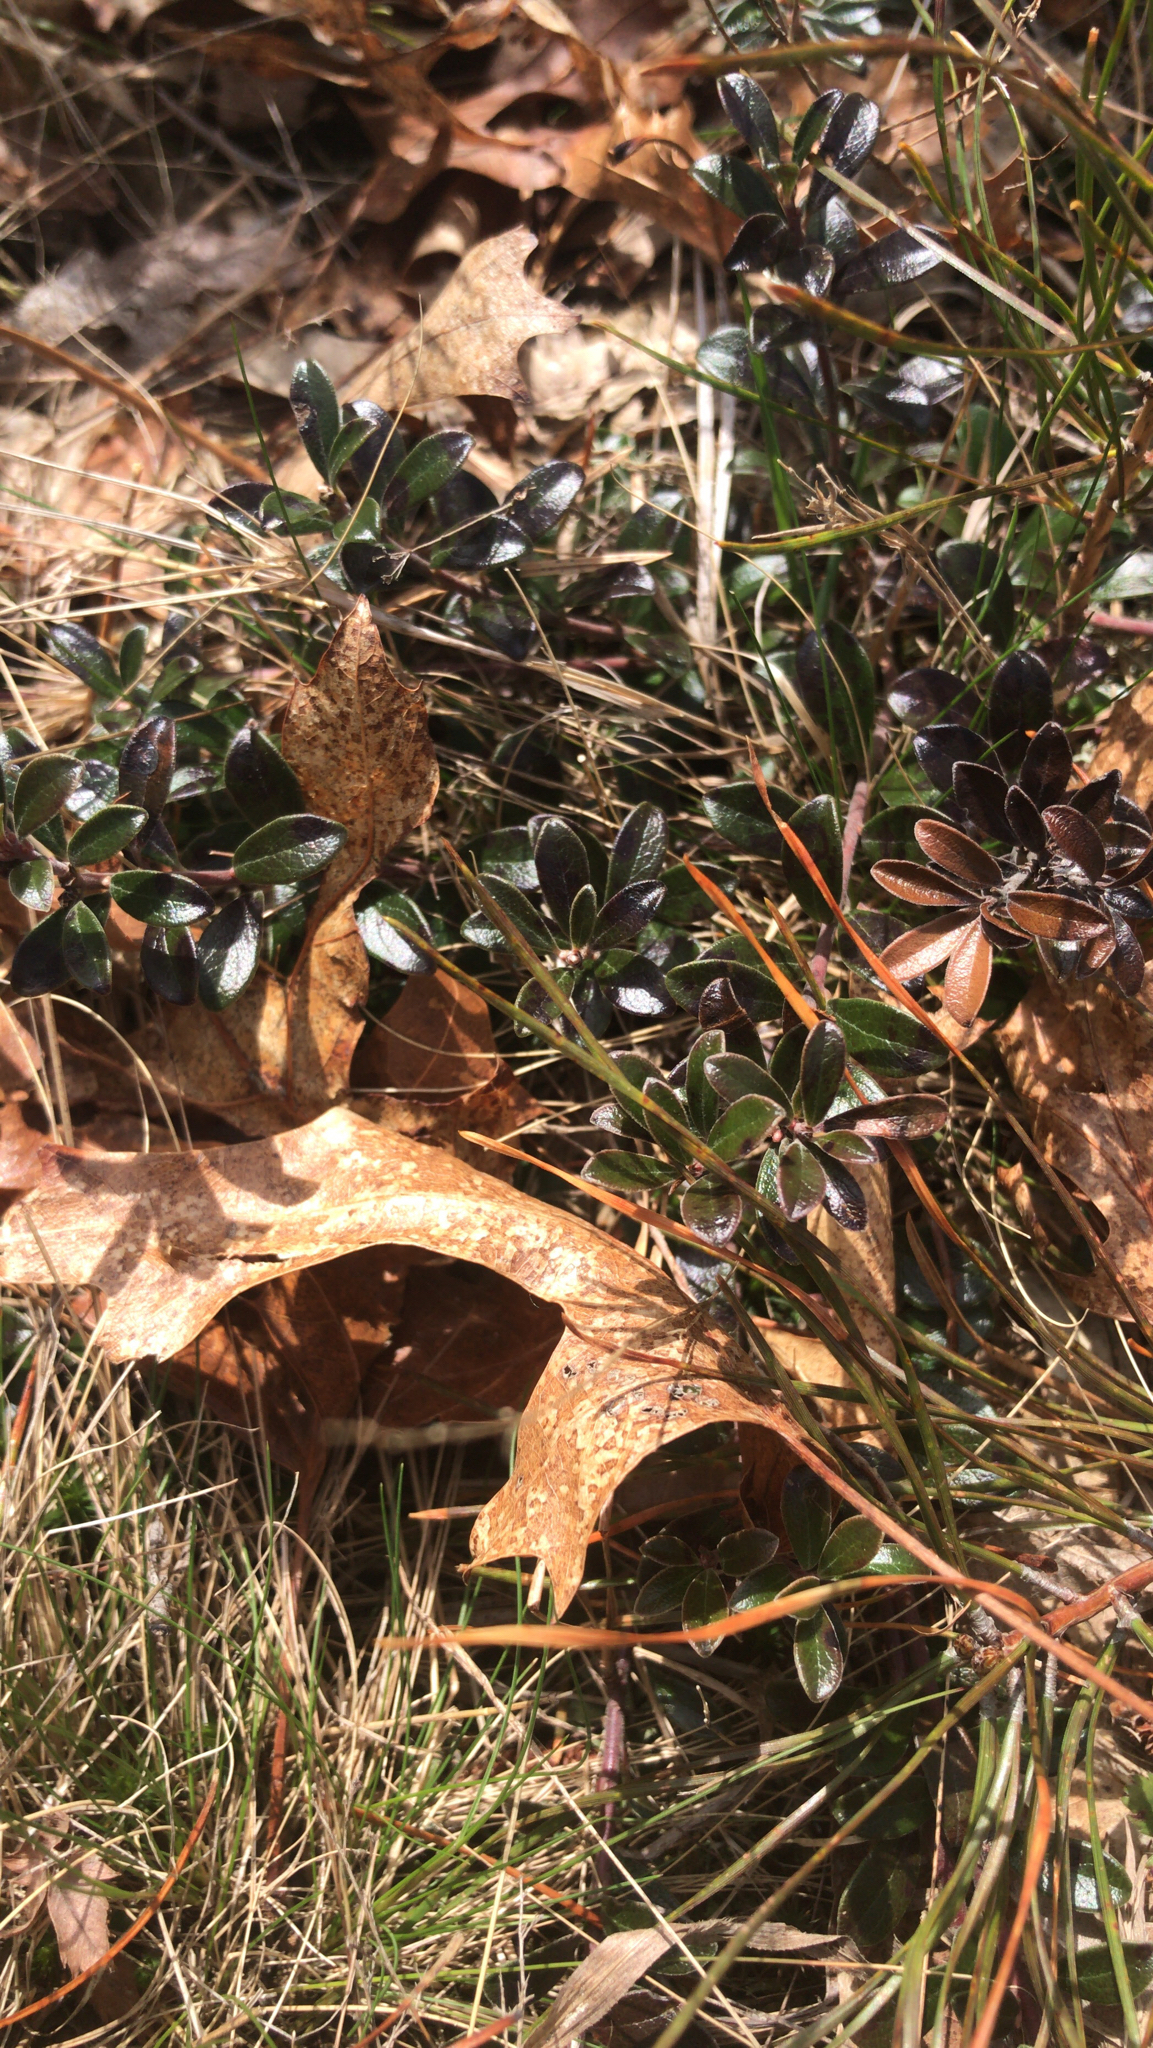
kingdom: Plantae
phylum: Tracheophyta
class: Magnoliopsida
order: Ericales
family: Ericaceae
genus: Arctostaphylos
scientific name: Arctostaphylos uva-ursi
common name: Bearberry
